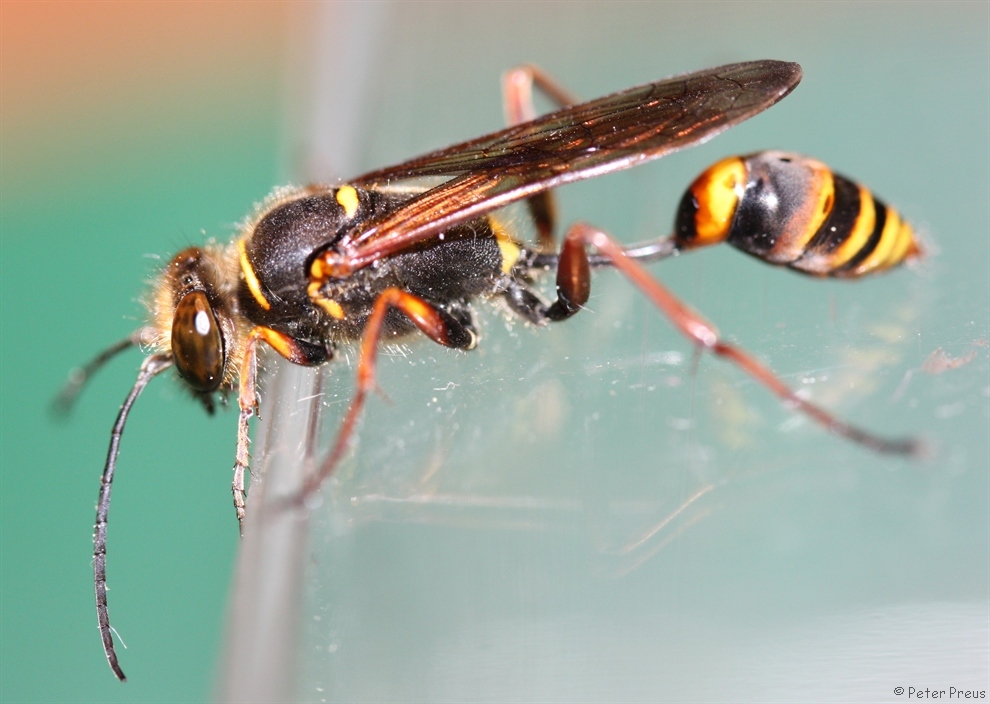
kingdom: Animalia
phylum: Arthropoda
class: Insecta
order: Hymenoptera
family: Sphecidae
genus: Sceliphron
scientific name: Sceliphron curvatum
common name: Pèlopèe
